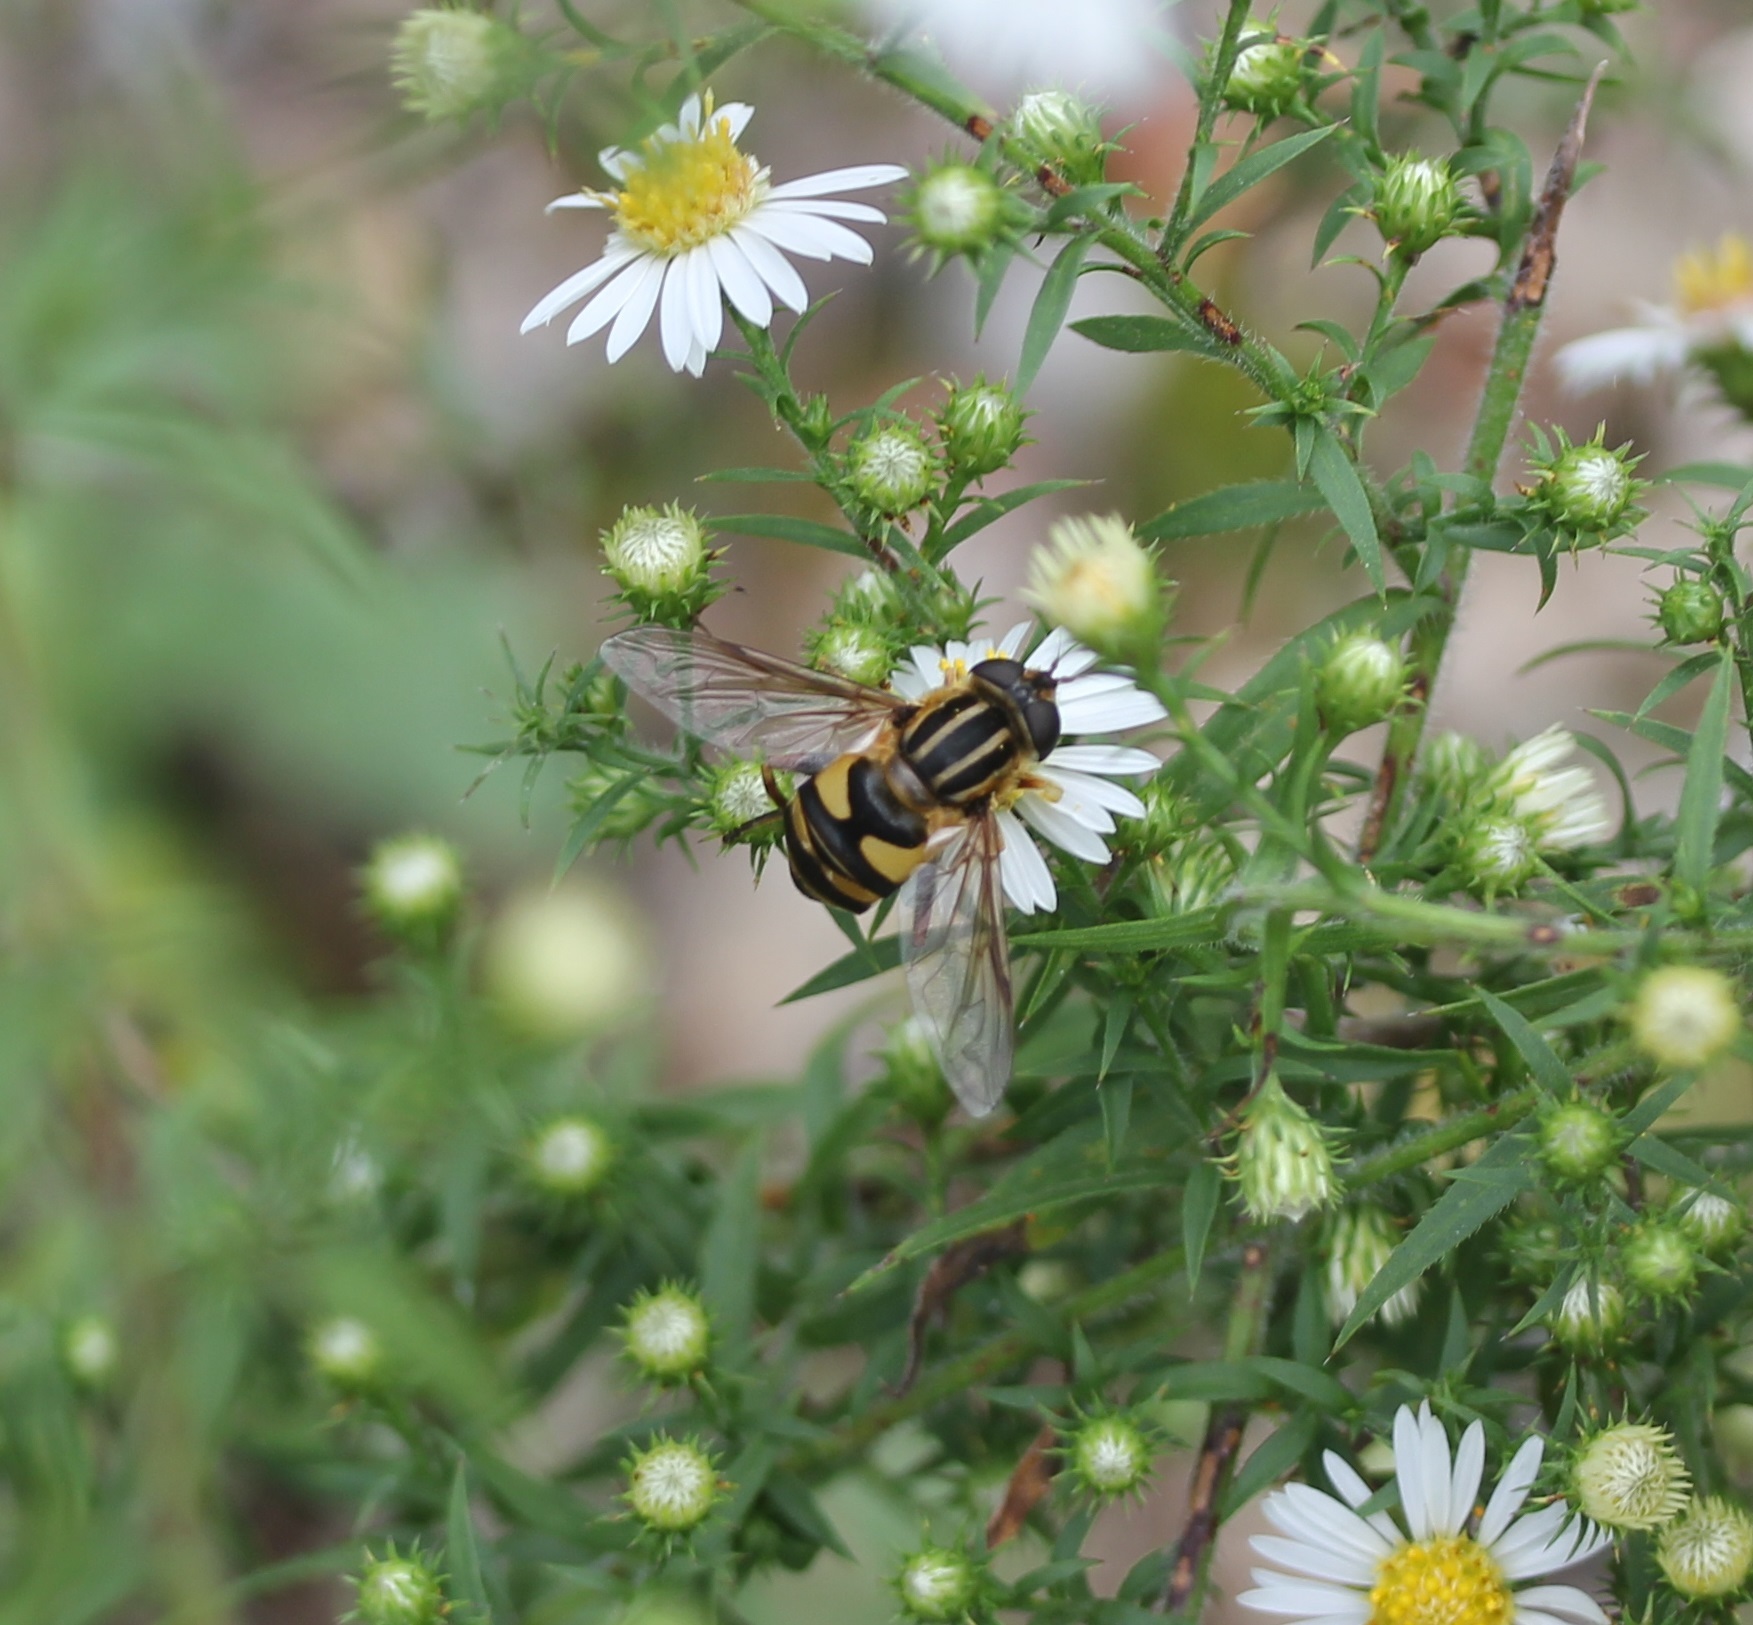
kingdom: Animalia
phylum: Arthropoda
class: Insecta
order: Diptera
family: Syrphidae
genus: Helophilus
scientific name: Helophilus fasciatus
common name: Narrow-headed marsh fly
